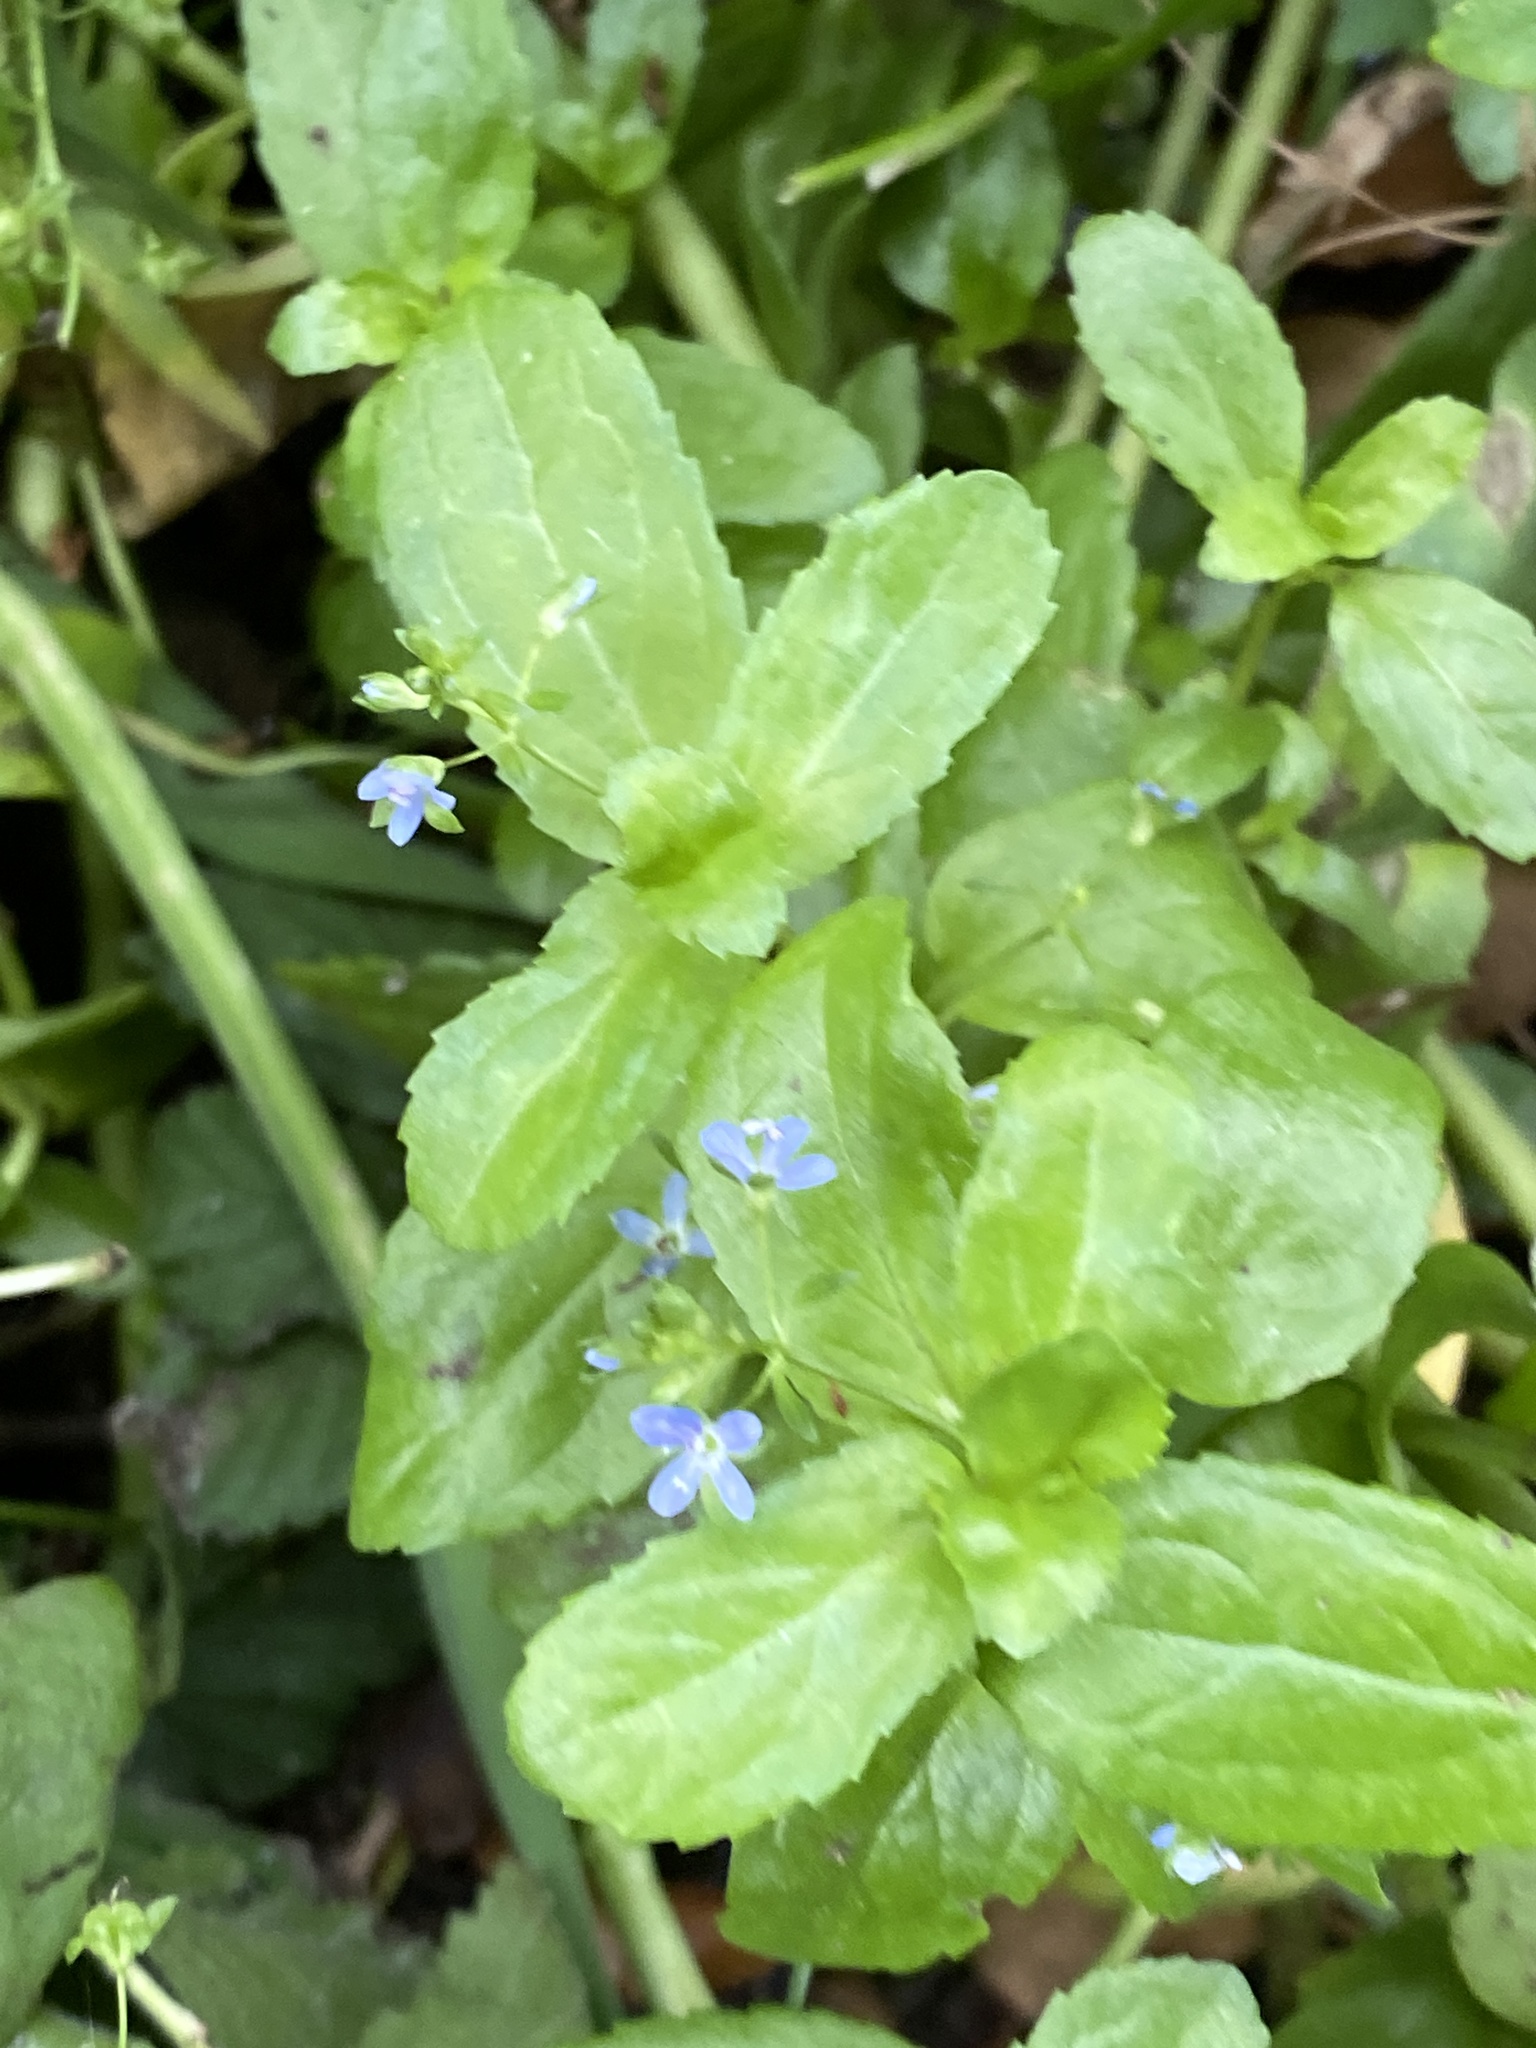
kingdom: Plantae
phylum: Tracheophyta
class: Magnoliopsida
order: Lamiales
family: Plantaginaceae
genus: Veronica
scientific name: Veronica beccabunga
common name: Brooklime
